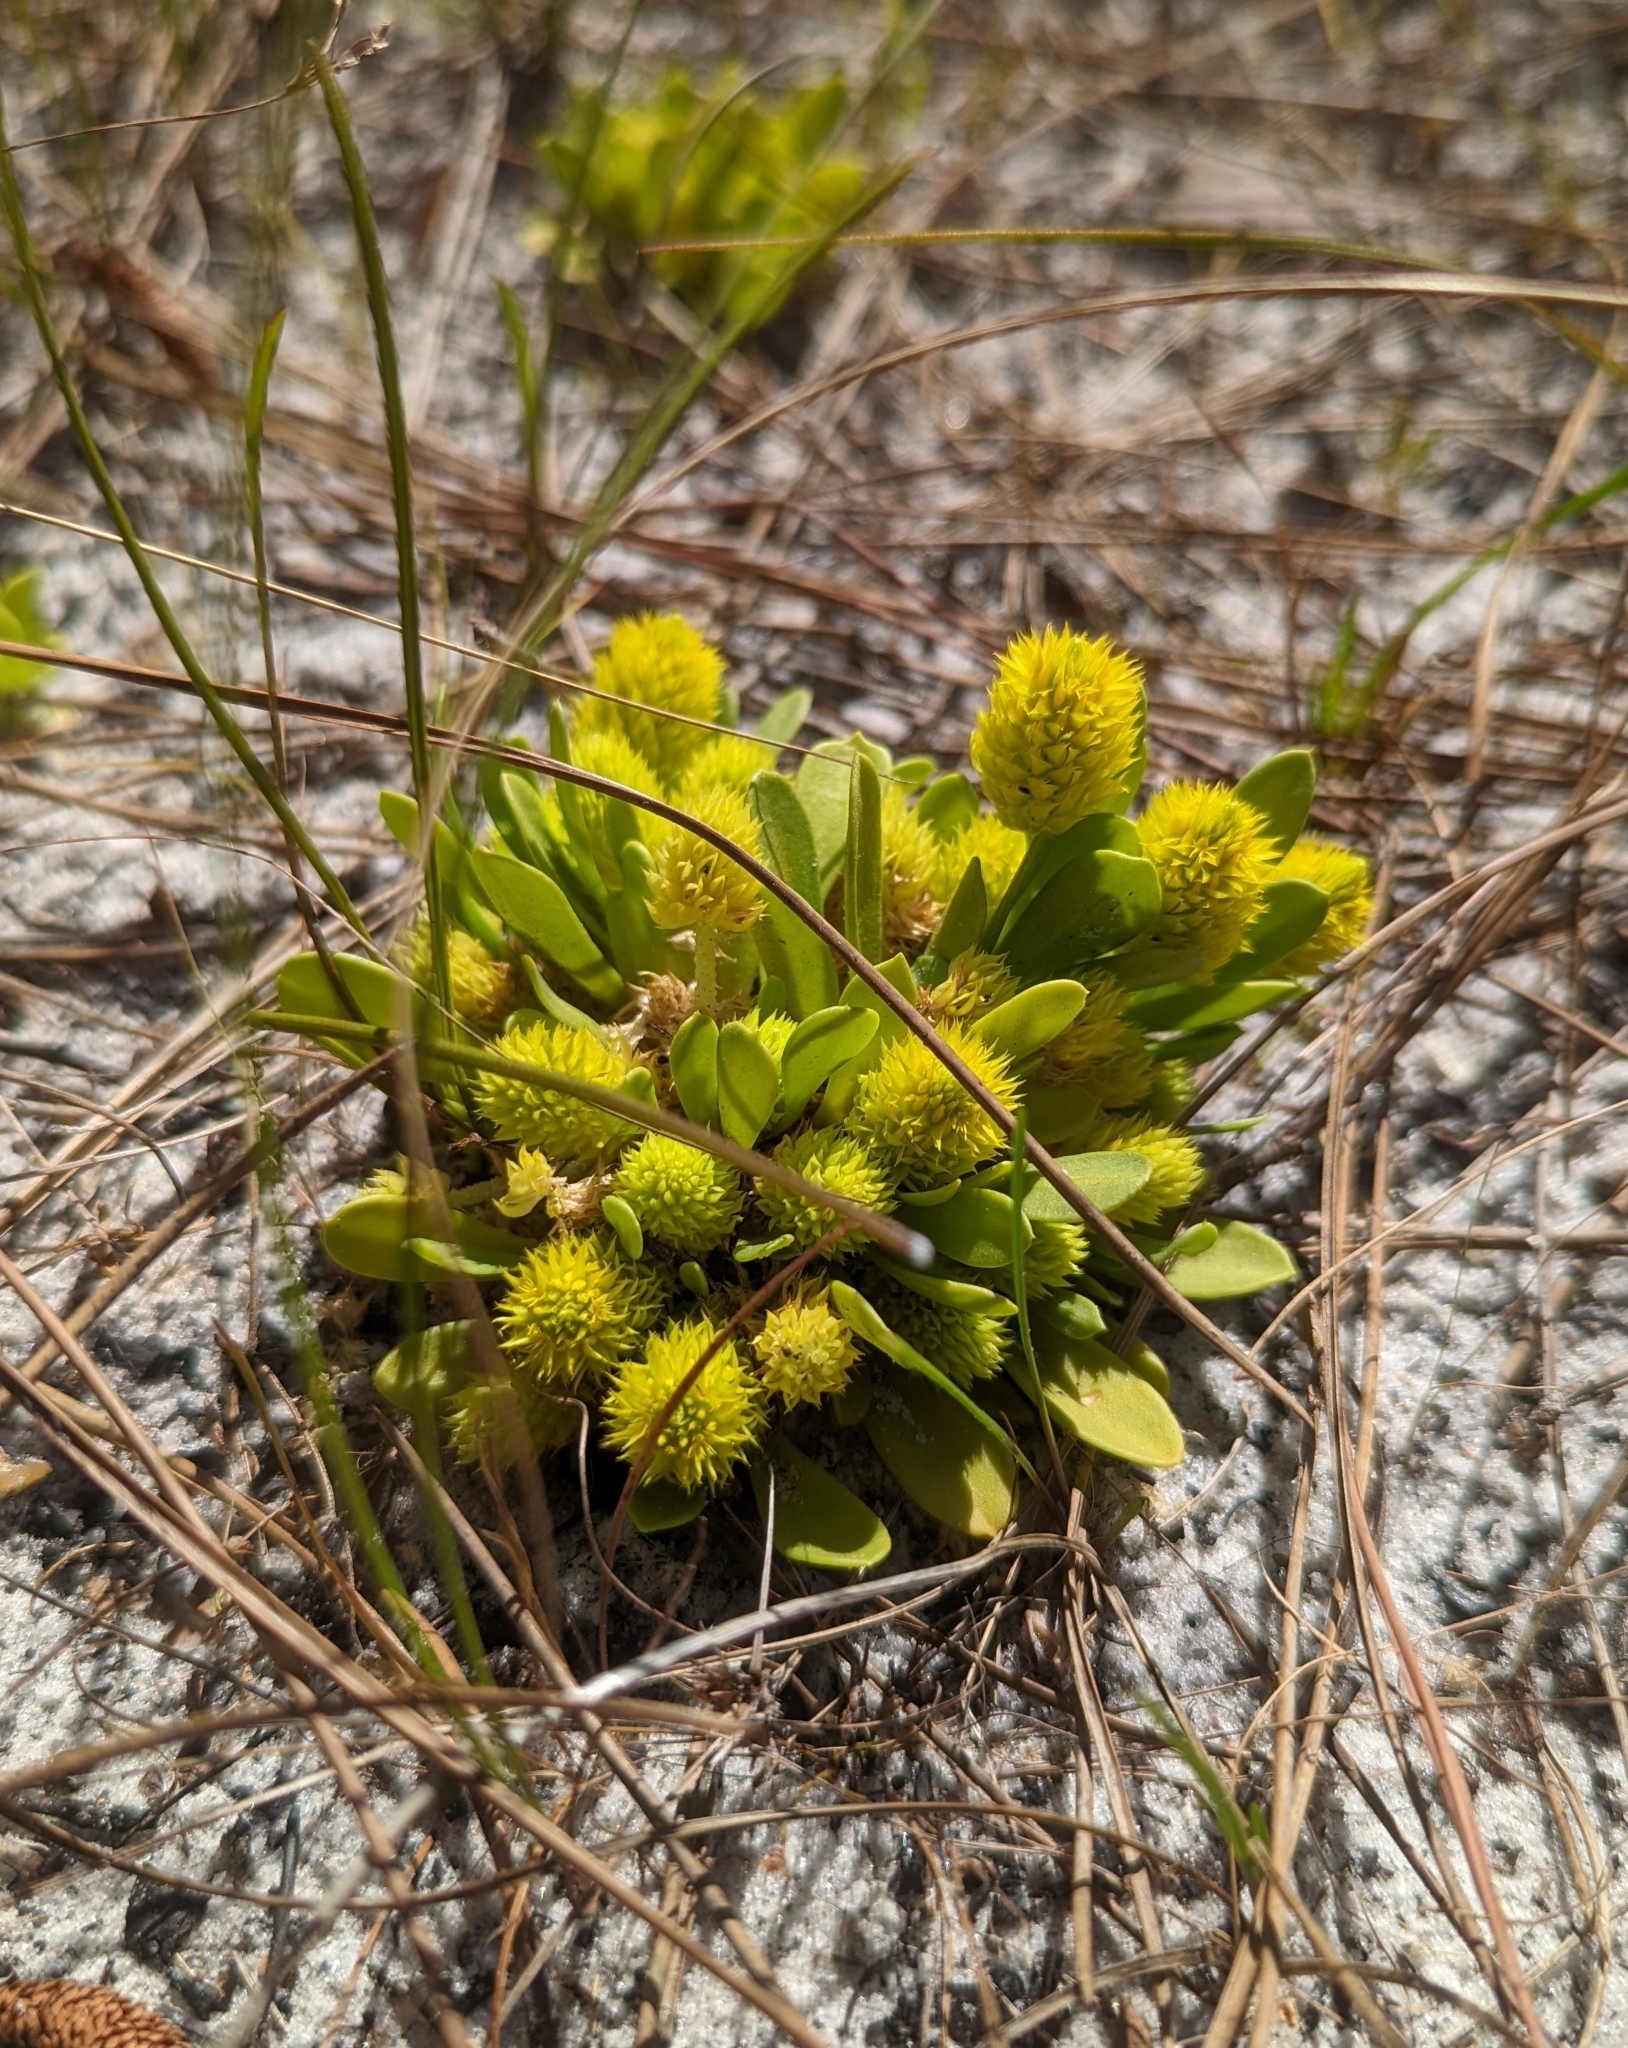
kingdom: Plantae
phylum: Tracheophyta
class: Magnoliopsida
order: Fabales
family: Polygalaceae
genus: Polygala
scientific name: Polygala nana
